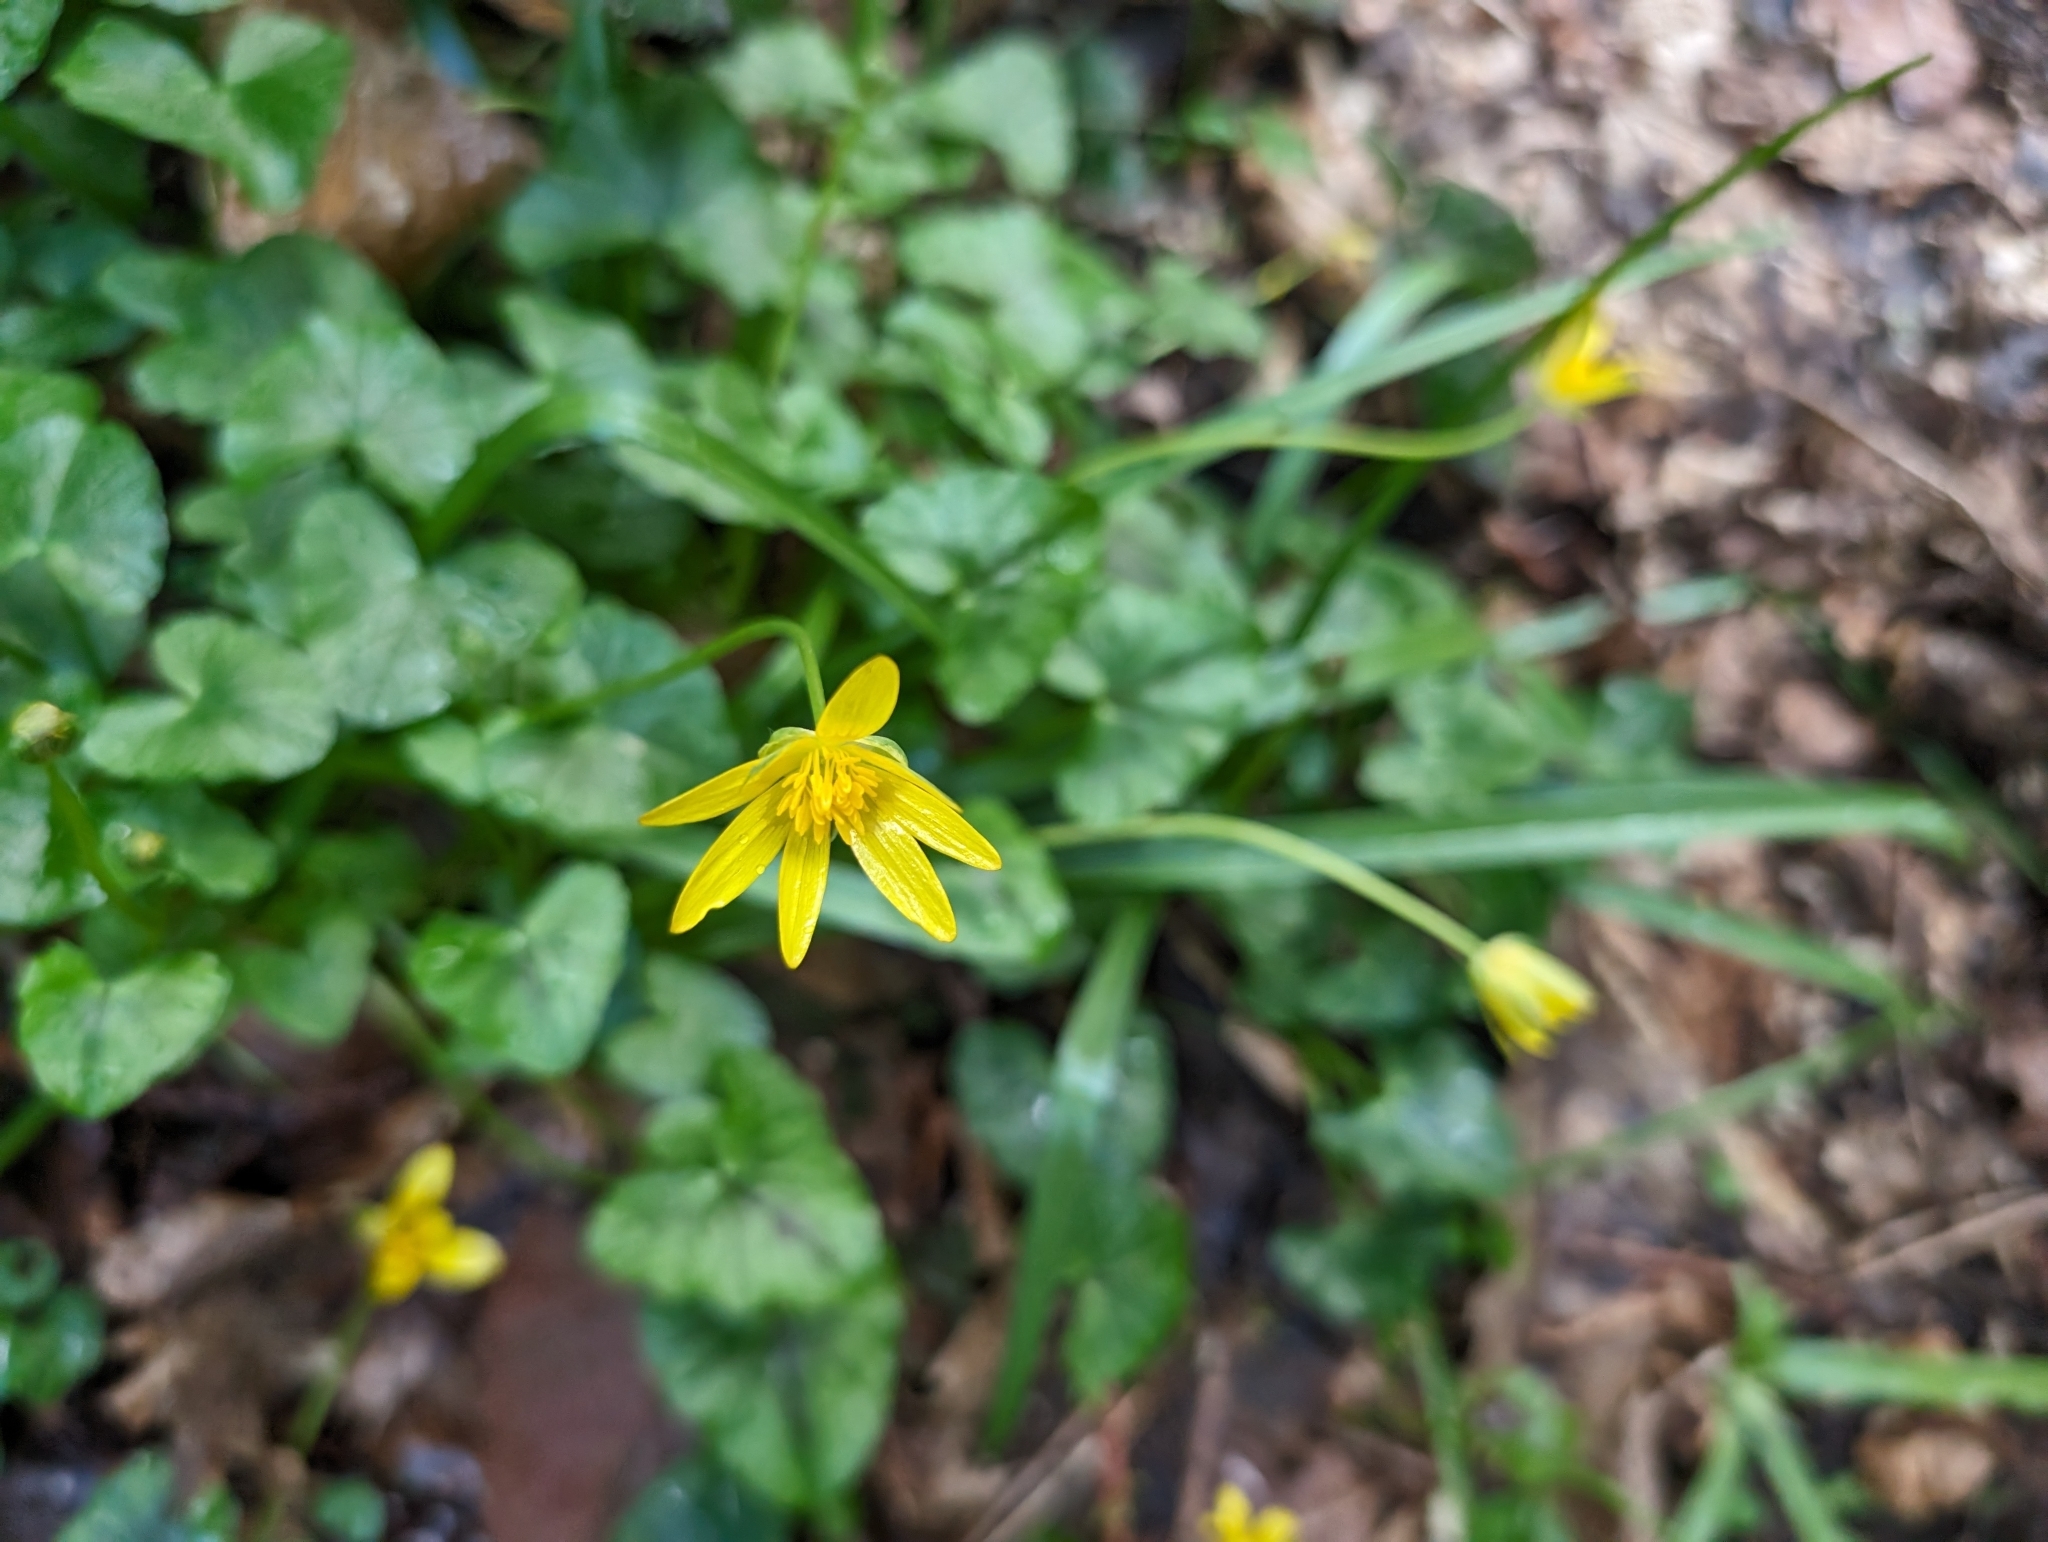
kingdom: Plantae
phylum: Tracheophyta
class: Magnoliopsida
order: Ranunculales
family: Ranunculaceae
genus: Ficaria
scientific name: Ficaria verna
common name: Lesser celandine
